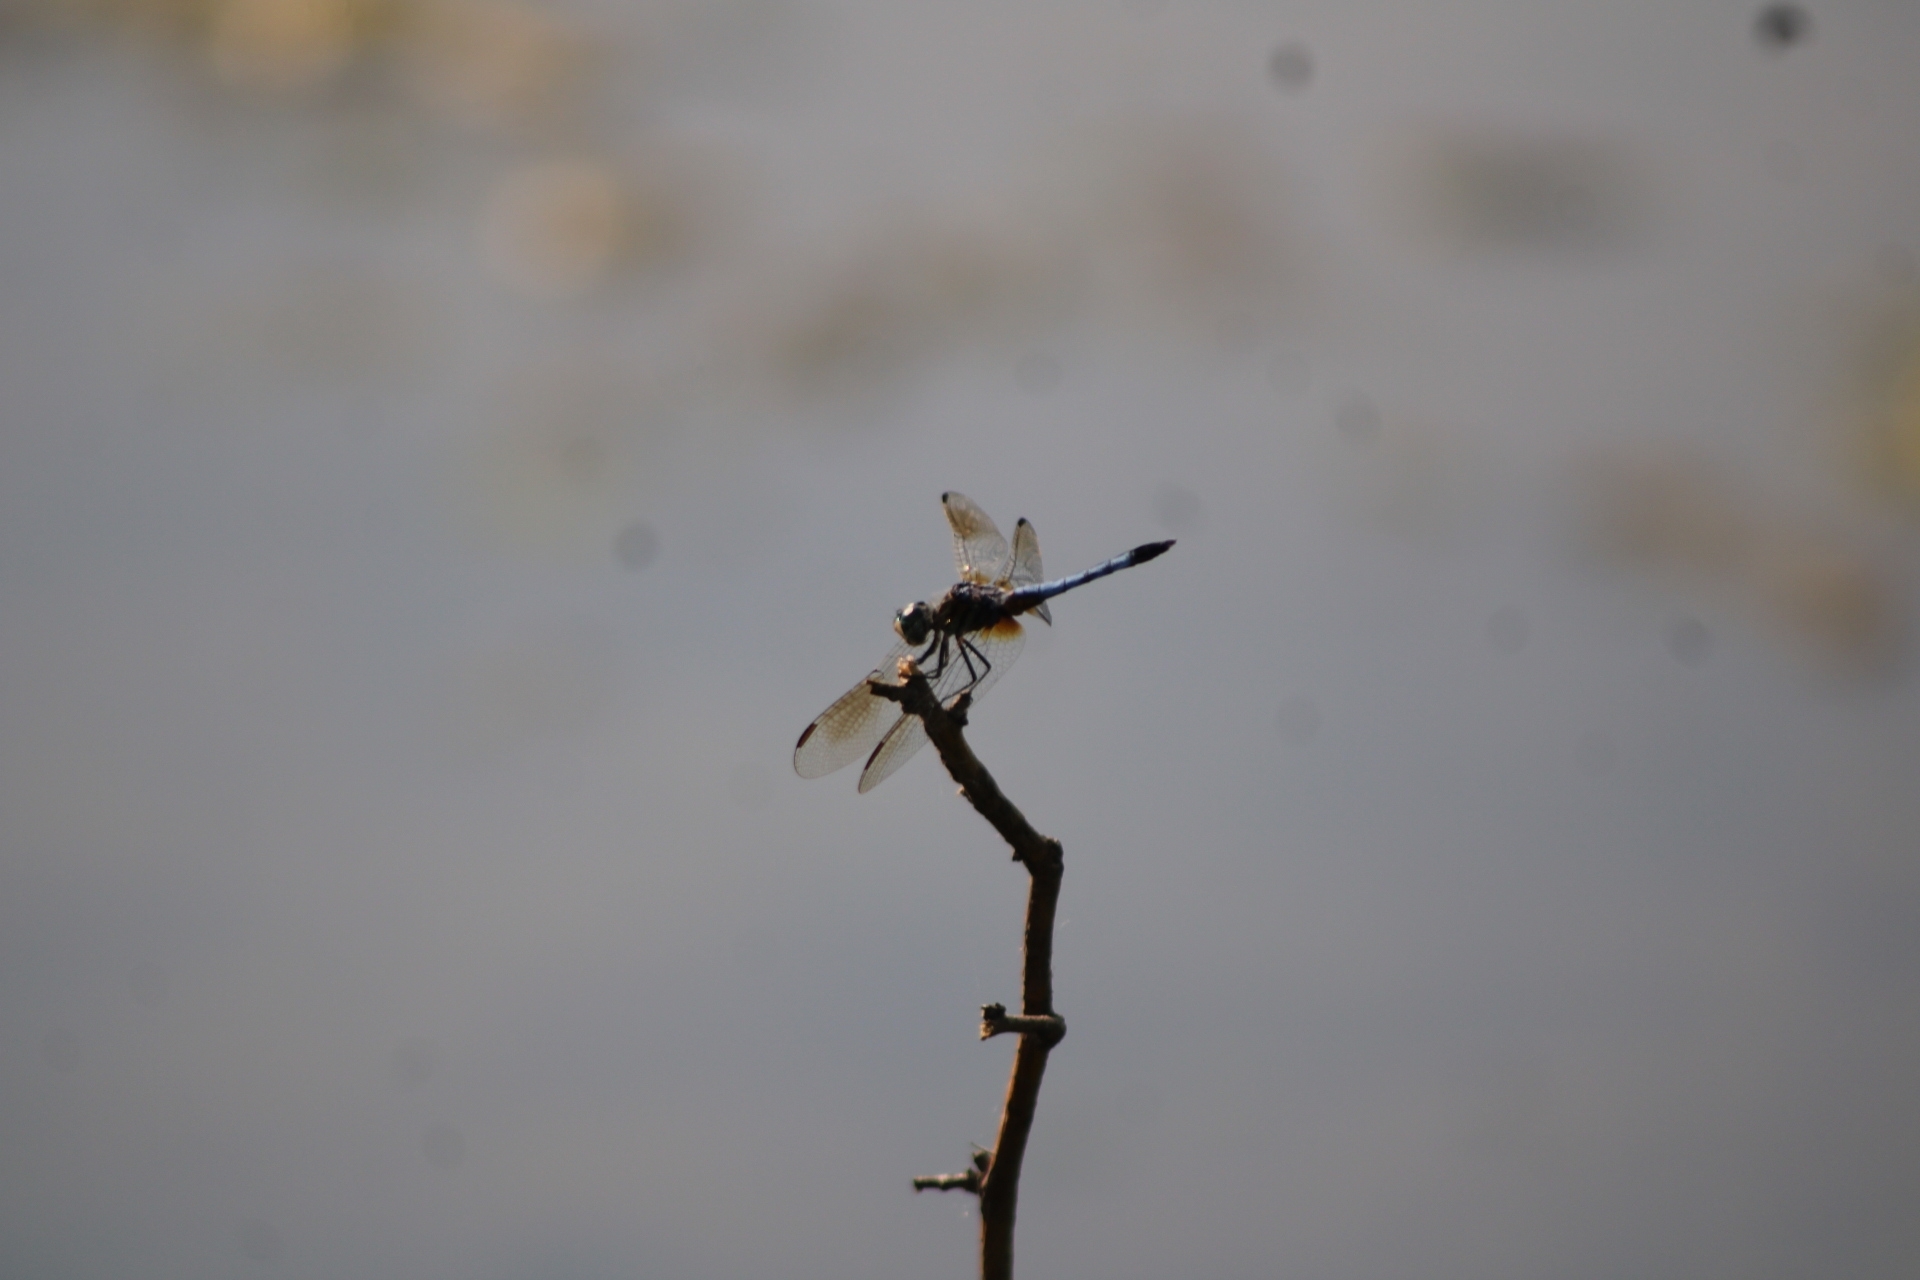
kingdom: Animalia
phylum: Arthropoda
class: Insecta
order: Odonata
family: Libellulidae
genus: Pachydiplax
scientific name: Pachydiplax longipennis
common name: Blue dasher
